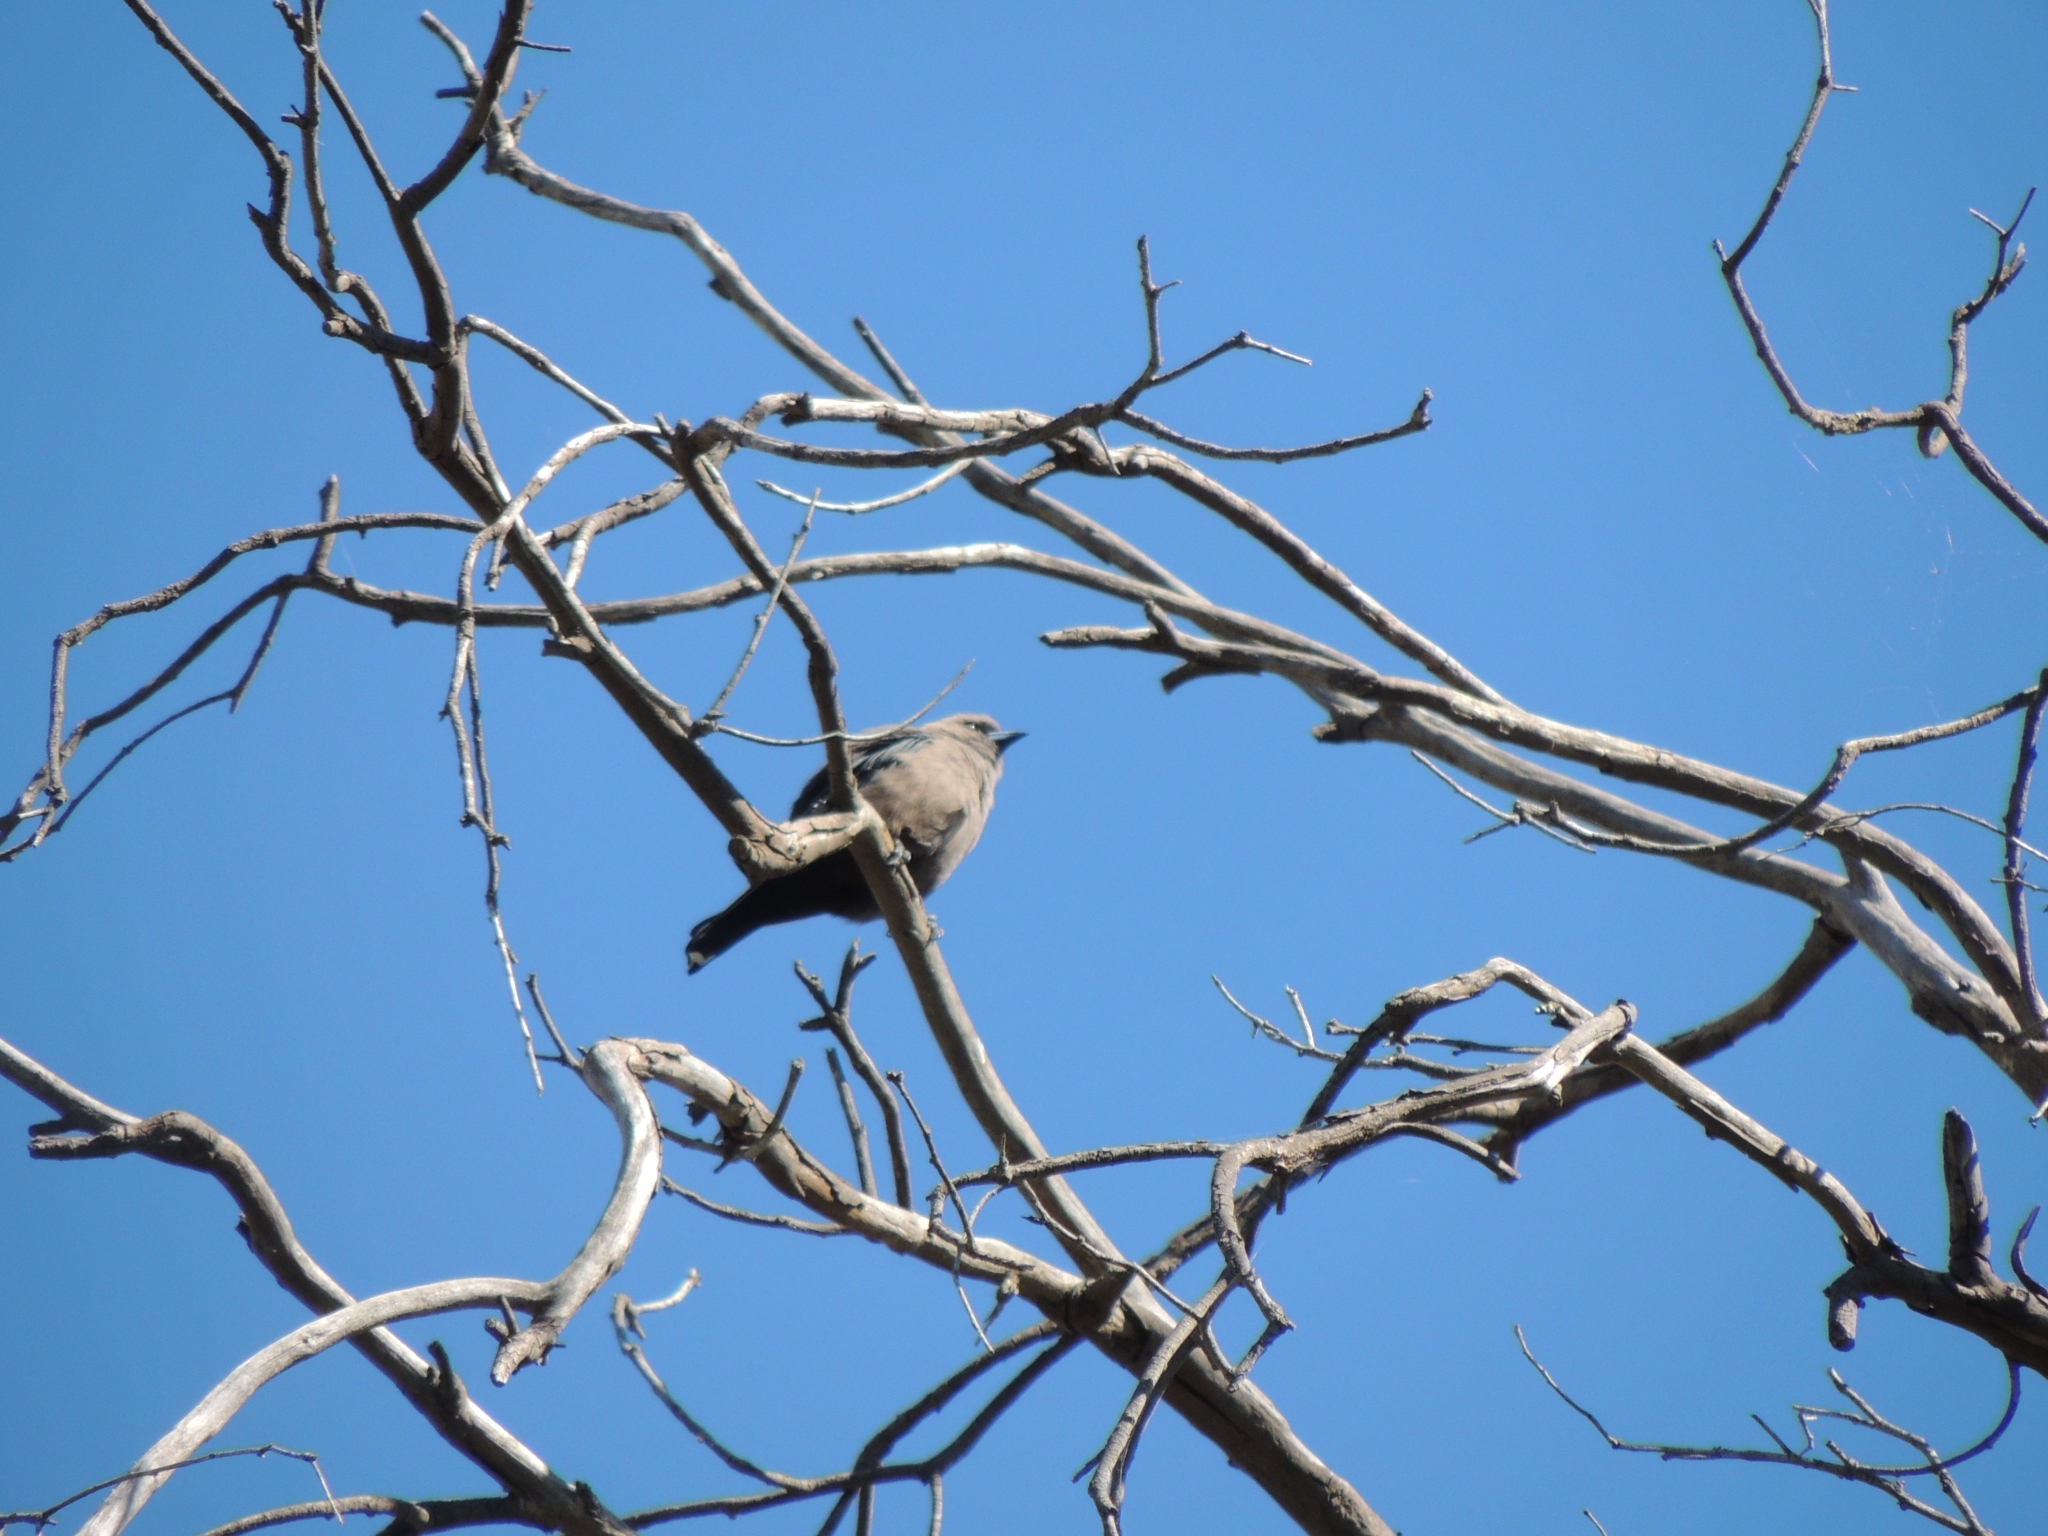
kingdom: Animalia
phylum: Chordata
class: Aves
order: Passeriformes
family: Artamidae
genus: Artamus
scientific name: Artamus cyanopterus
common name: Dusky woodswallow
